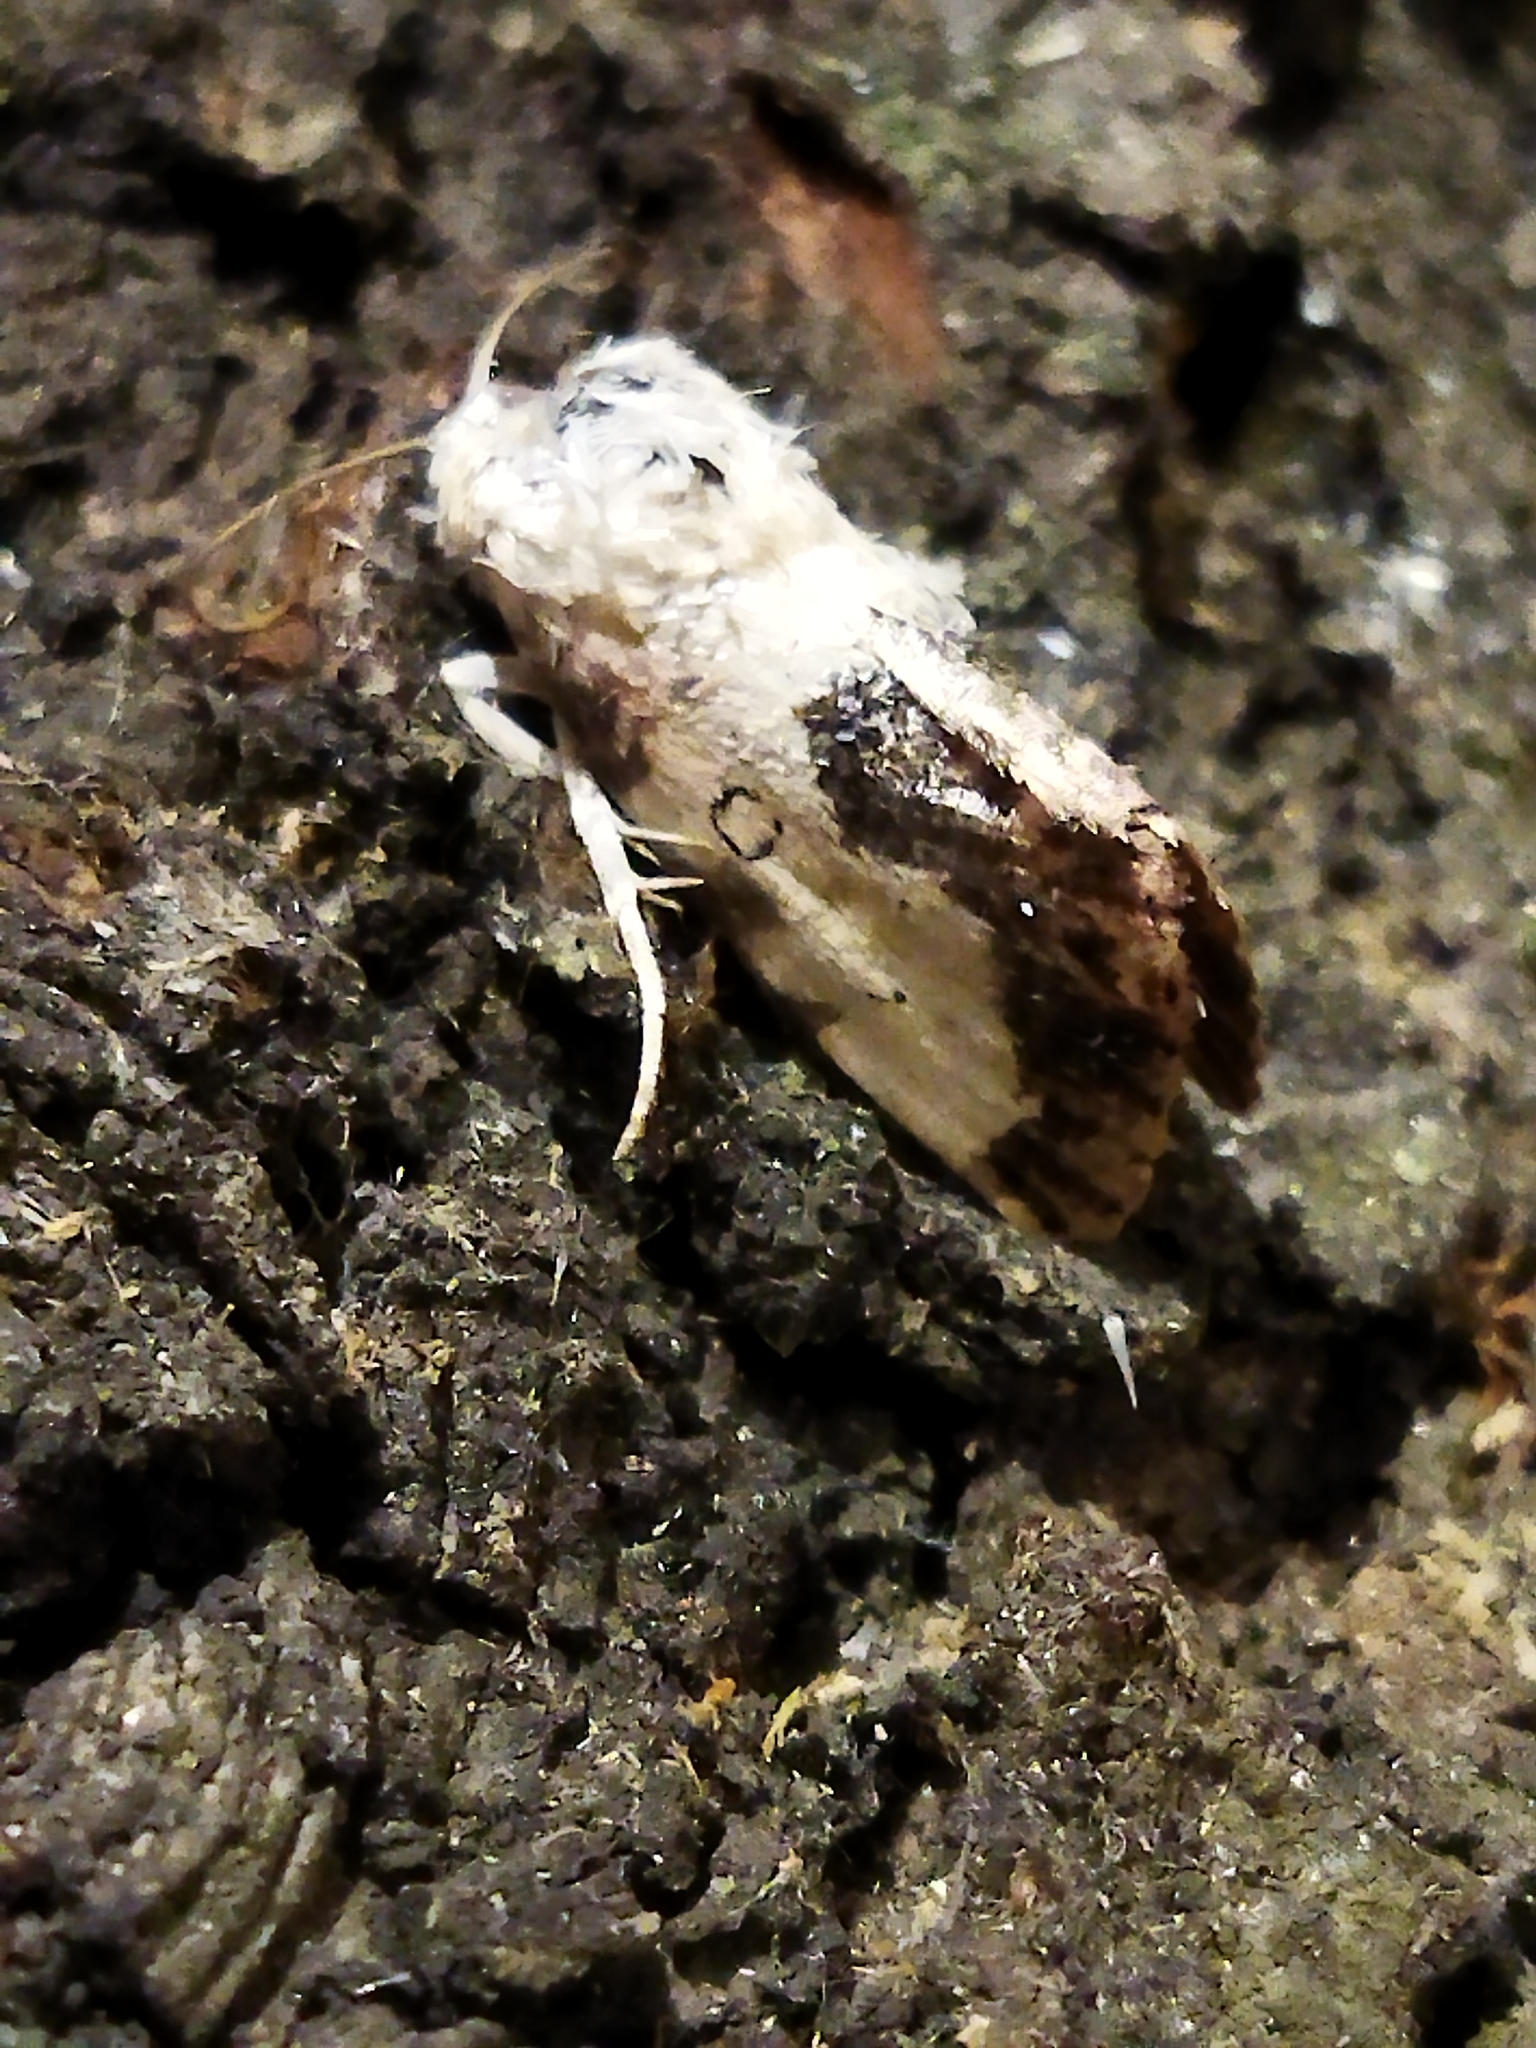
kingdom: Animalia
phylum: Arthropoda
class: Insecta
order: Lepidoptera
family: Noctuidae
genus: Acontia
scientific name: Acontia titania
